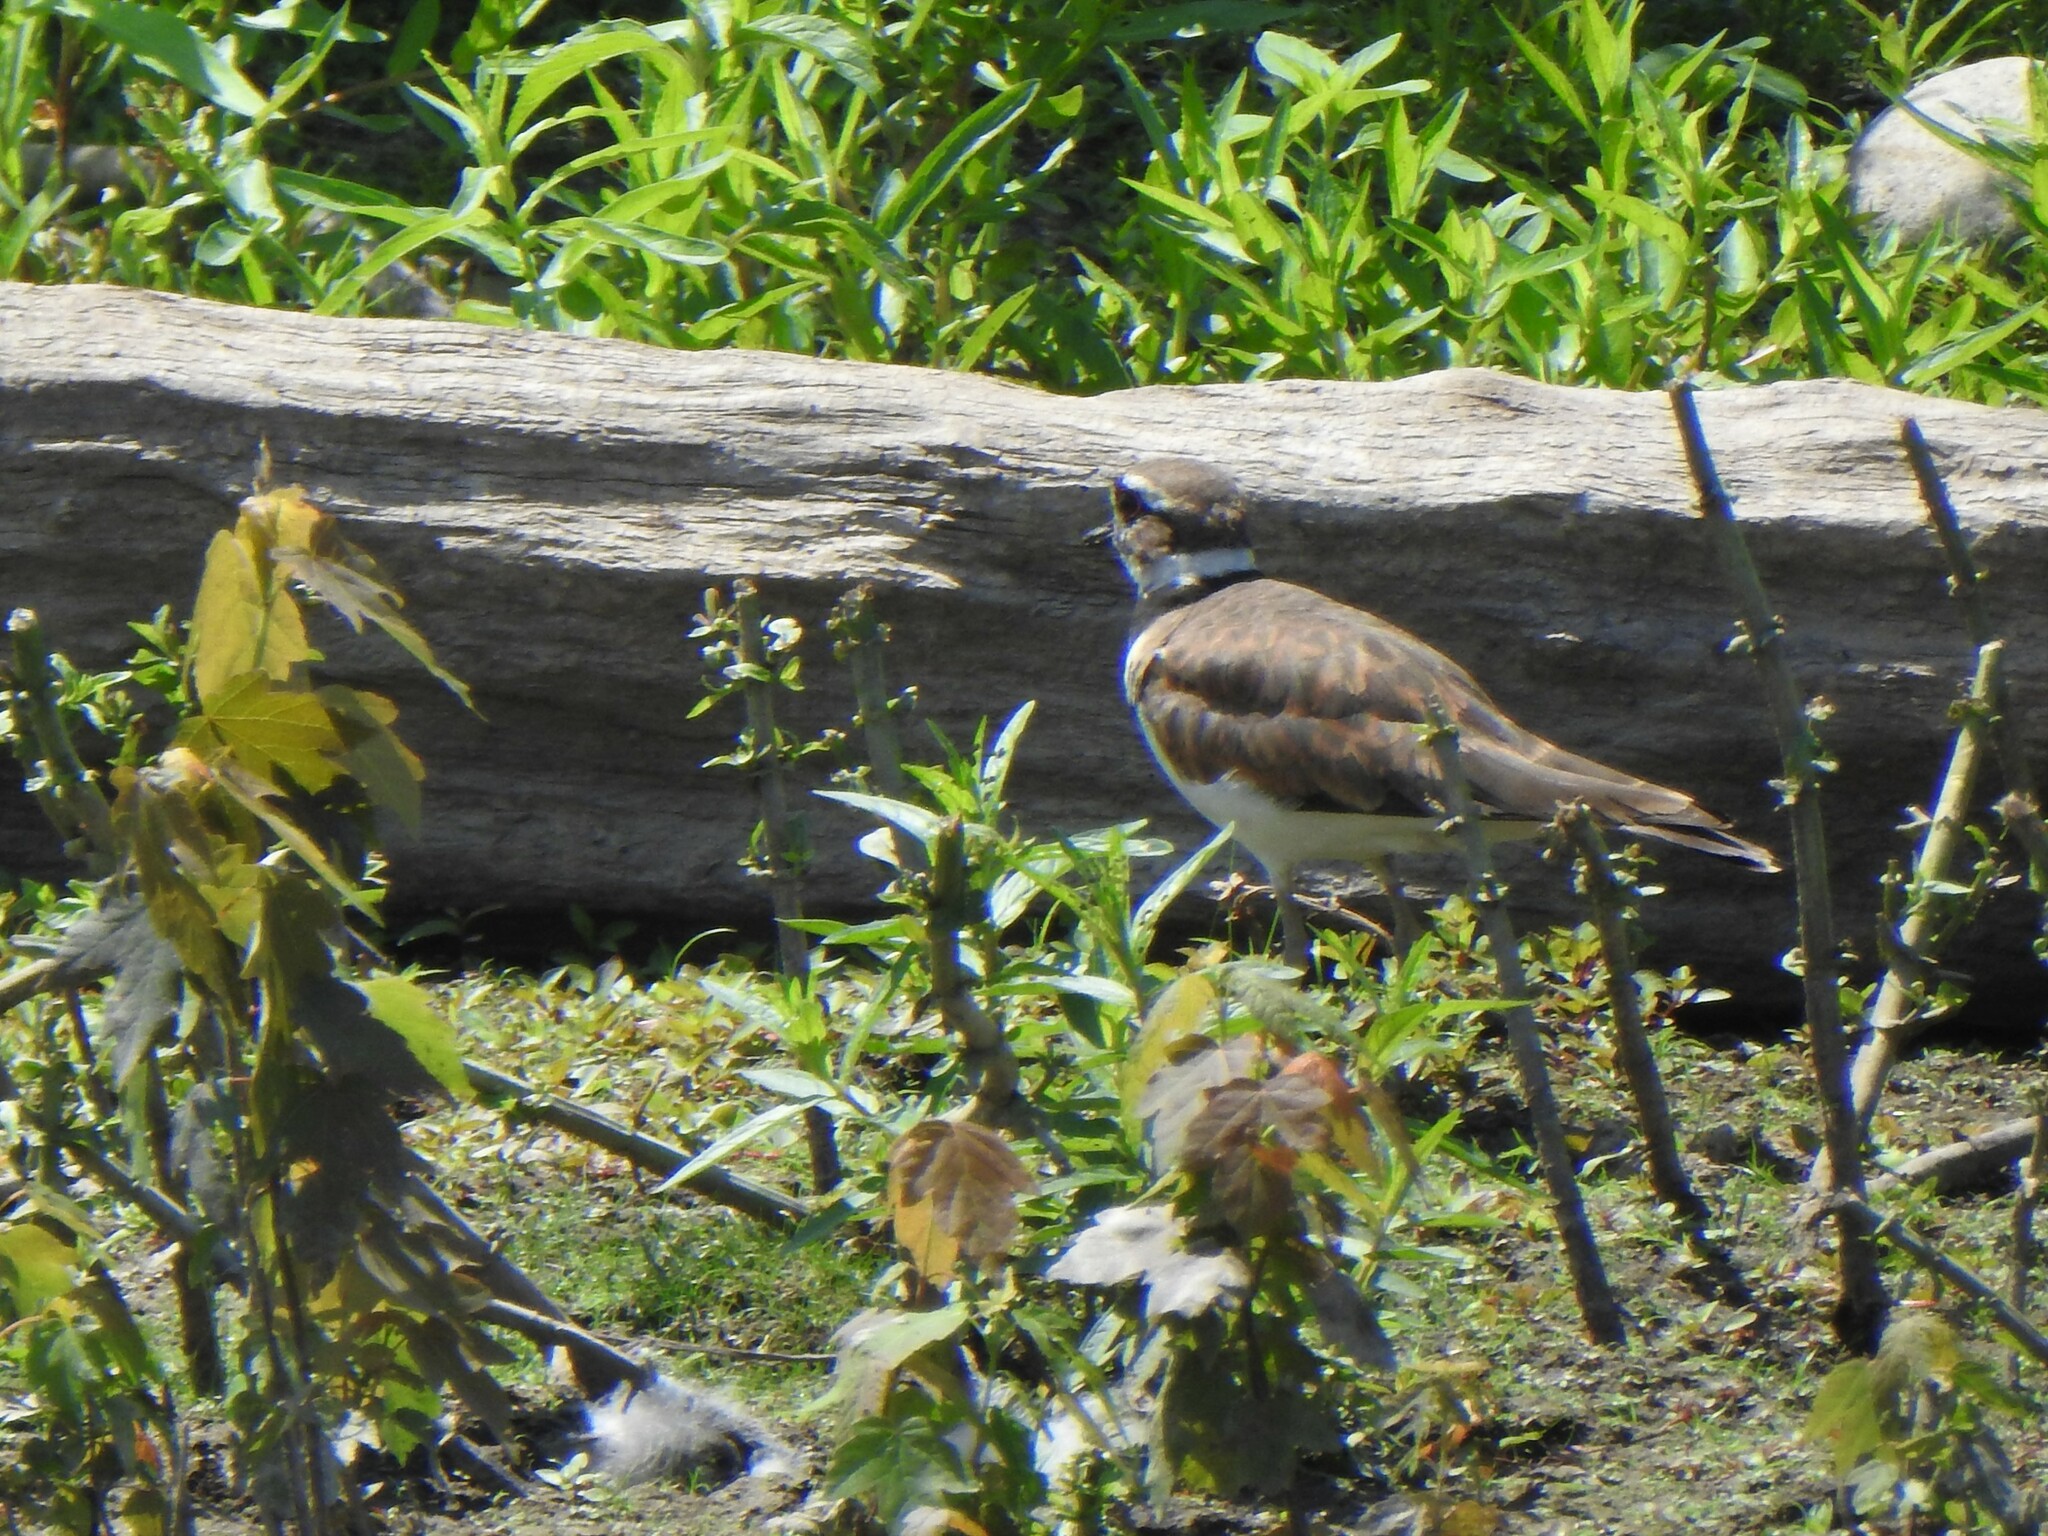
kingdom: Animalia
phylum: Chordata
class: Aves
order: Charadriiformes
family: Charadriidae
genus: Charadrius
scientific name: Charadrius vociferus
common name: Killdeer
